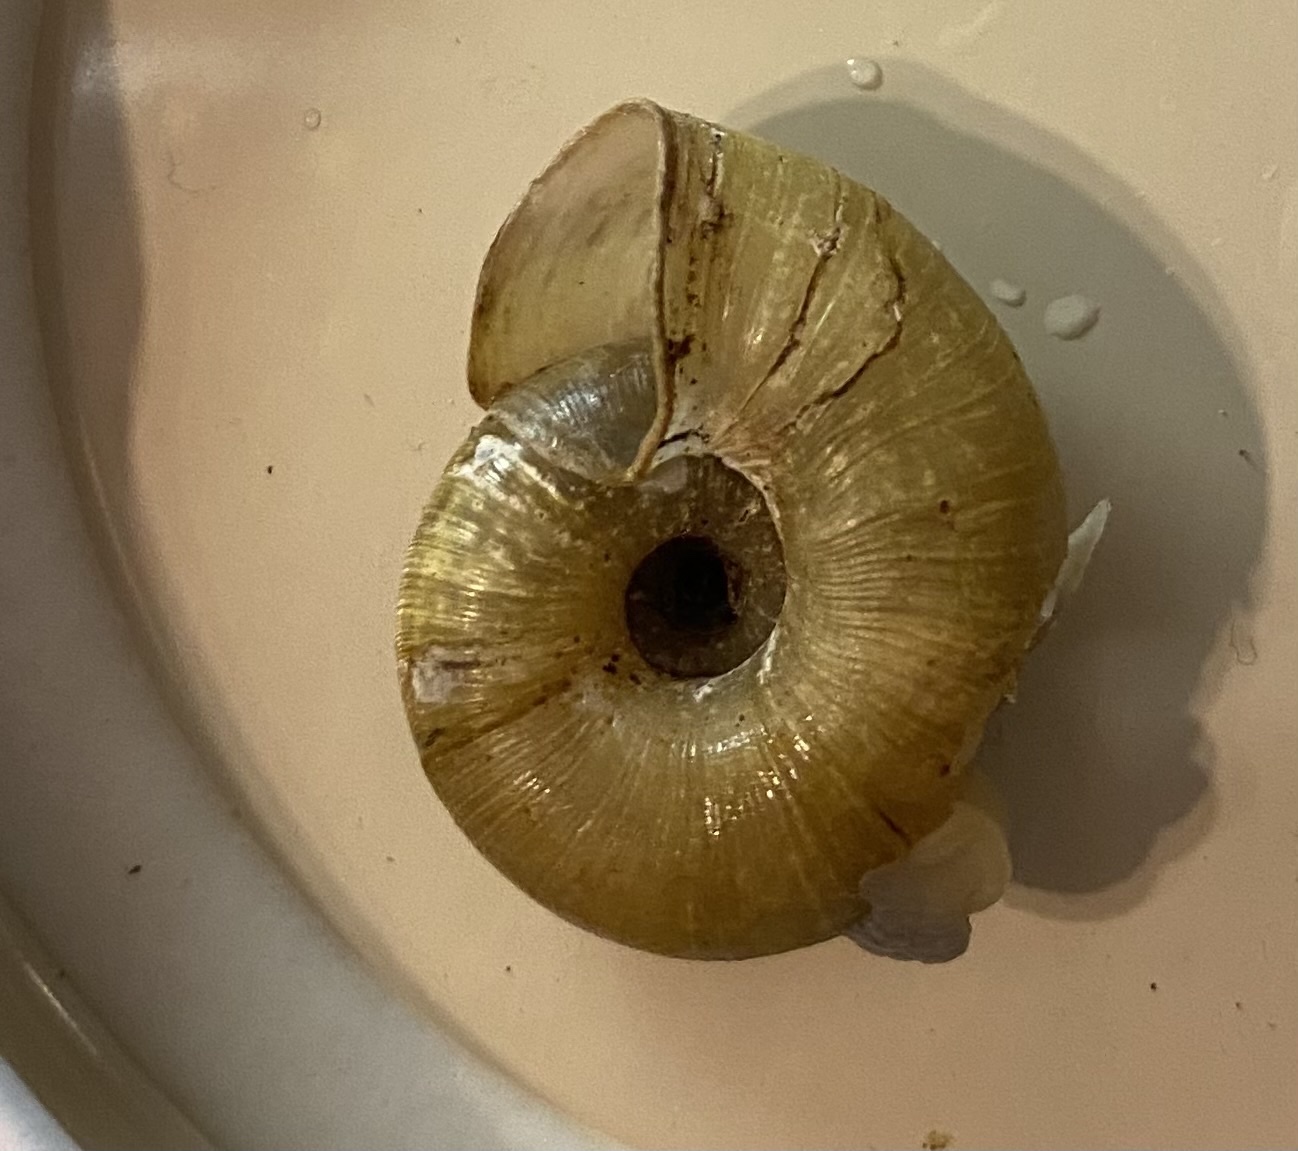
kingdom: Animalia
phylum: Mollusca
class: Gastropoda
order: Stylommatophora
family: Haplotrematidae
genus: Ancotrema
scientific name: Ancotrema sportella
